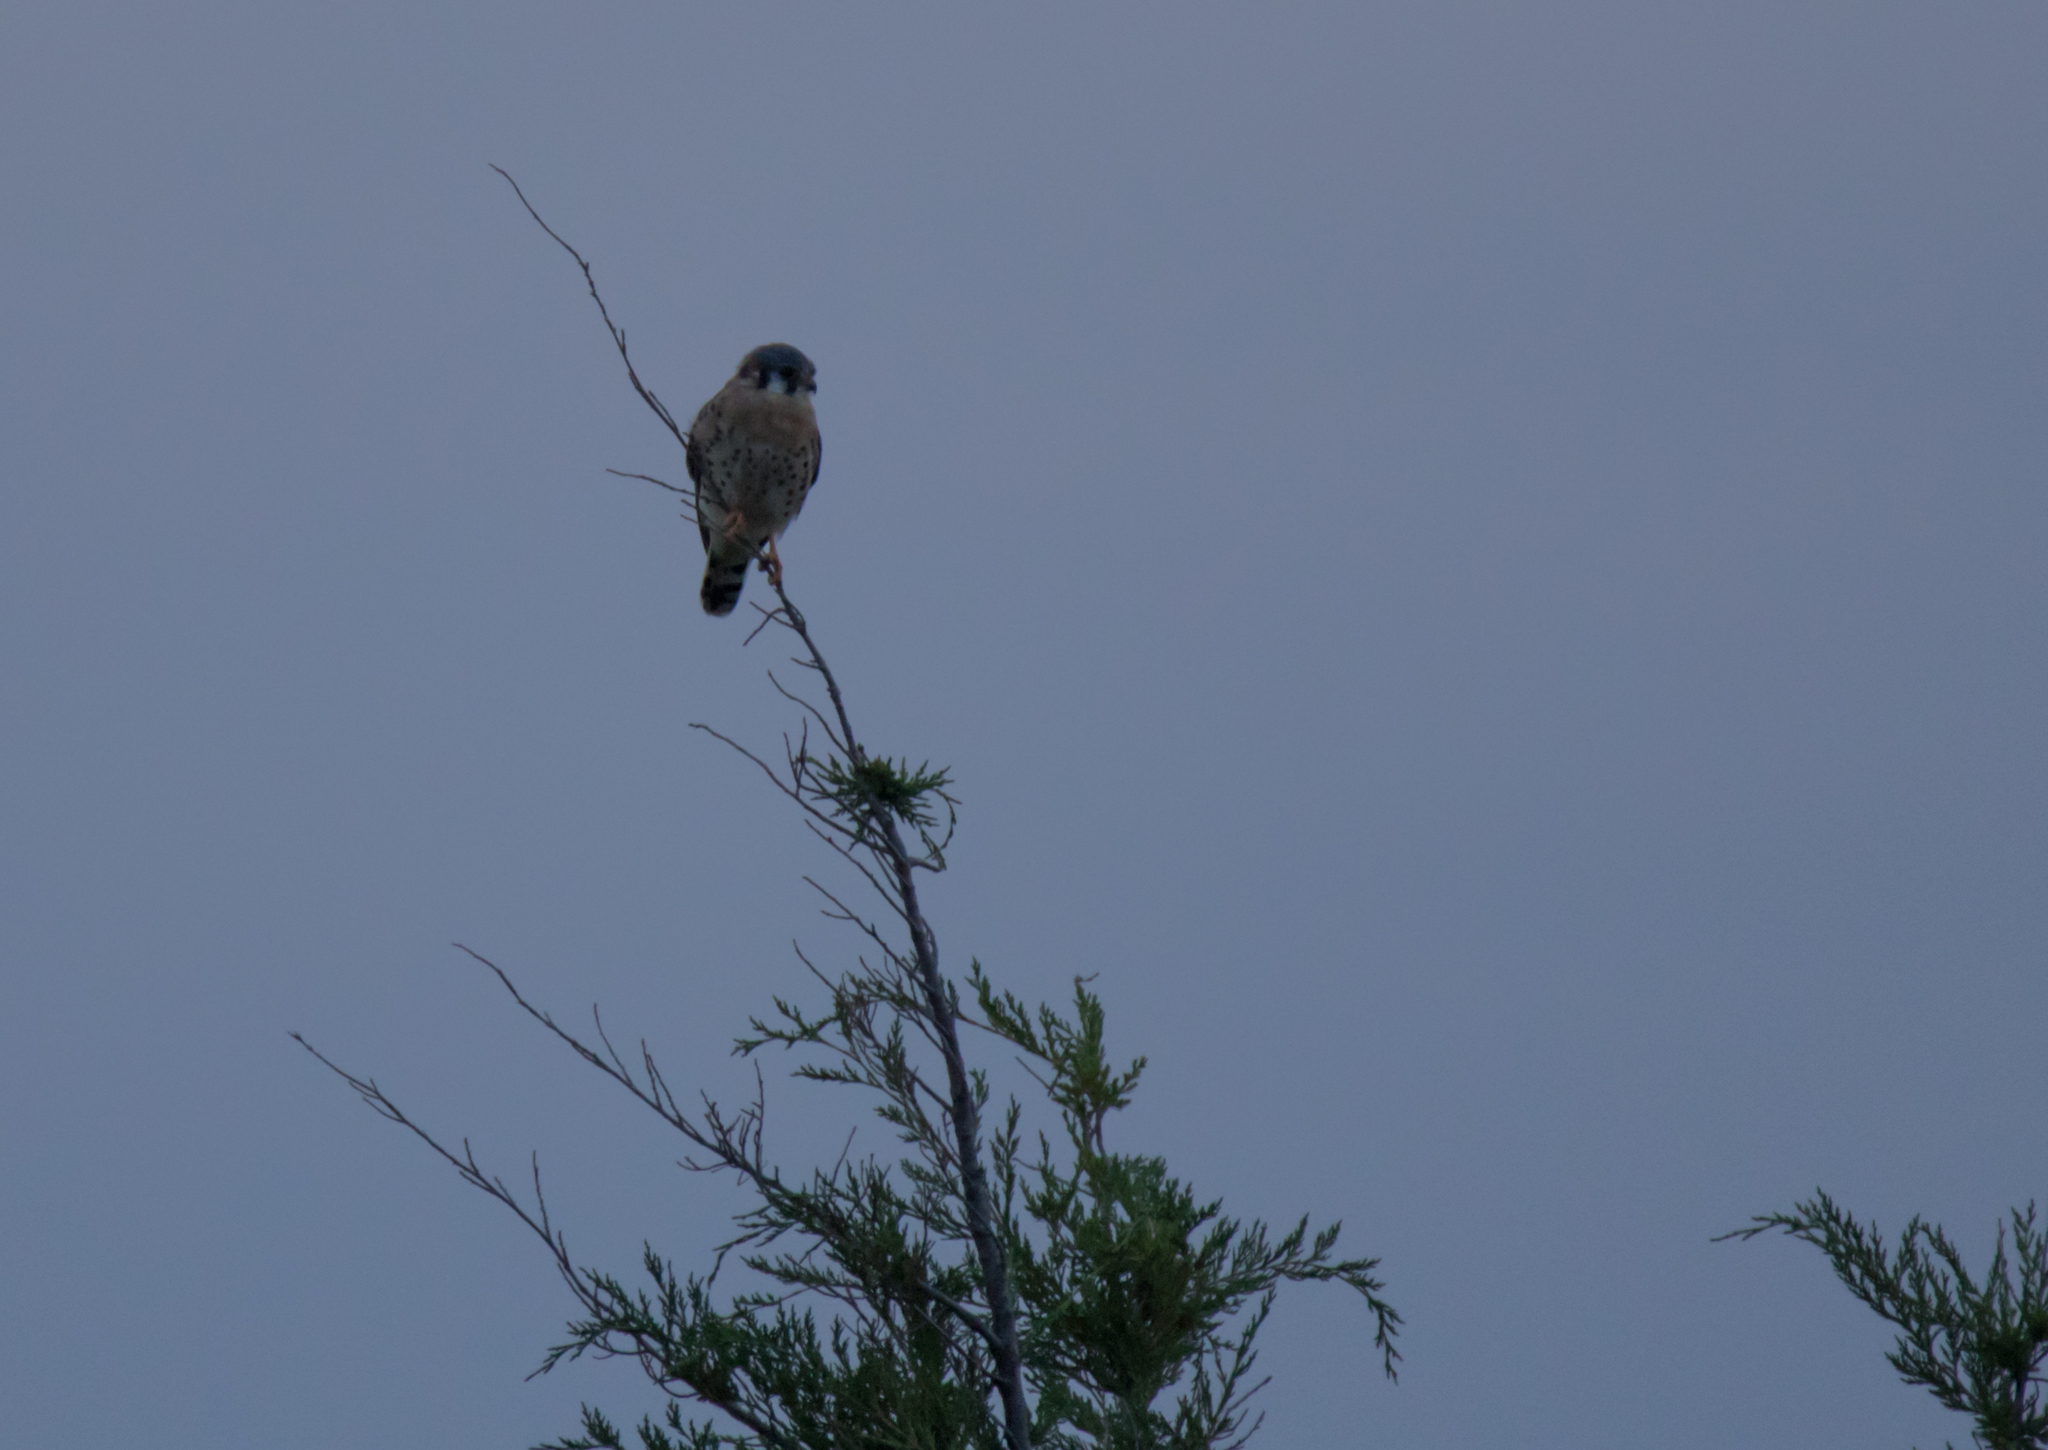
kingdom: Animalia
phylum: Chordata
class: Aves
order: Falconiformes
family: Falconidae
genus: Falco
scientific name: Falco sparverius
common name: American kestrel
